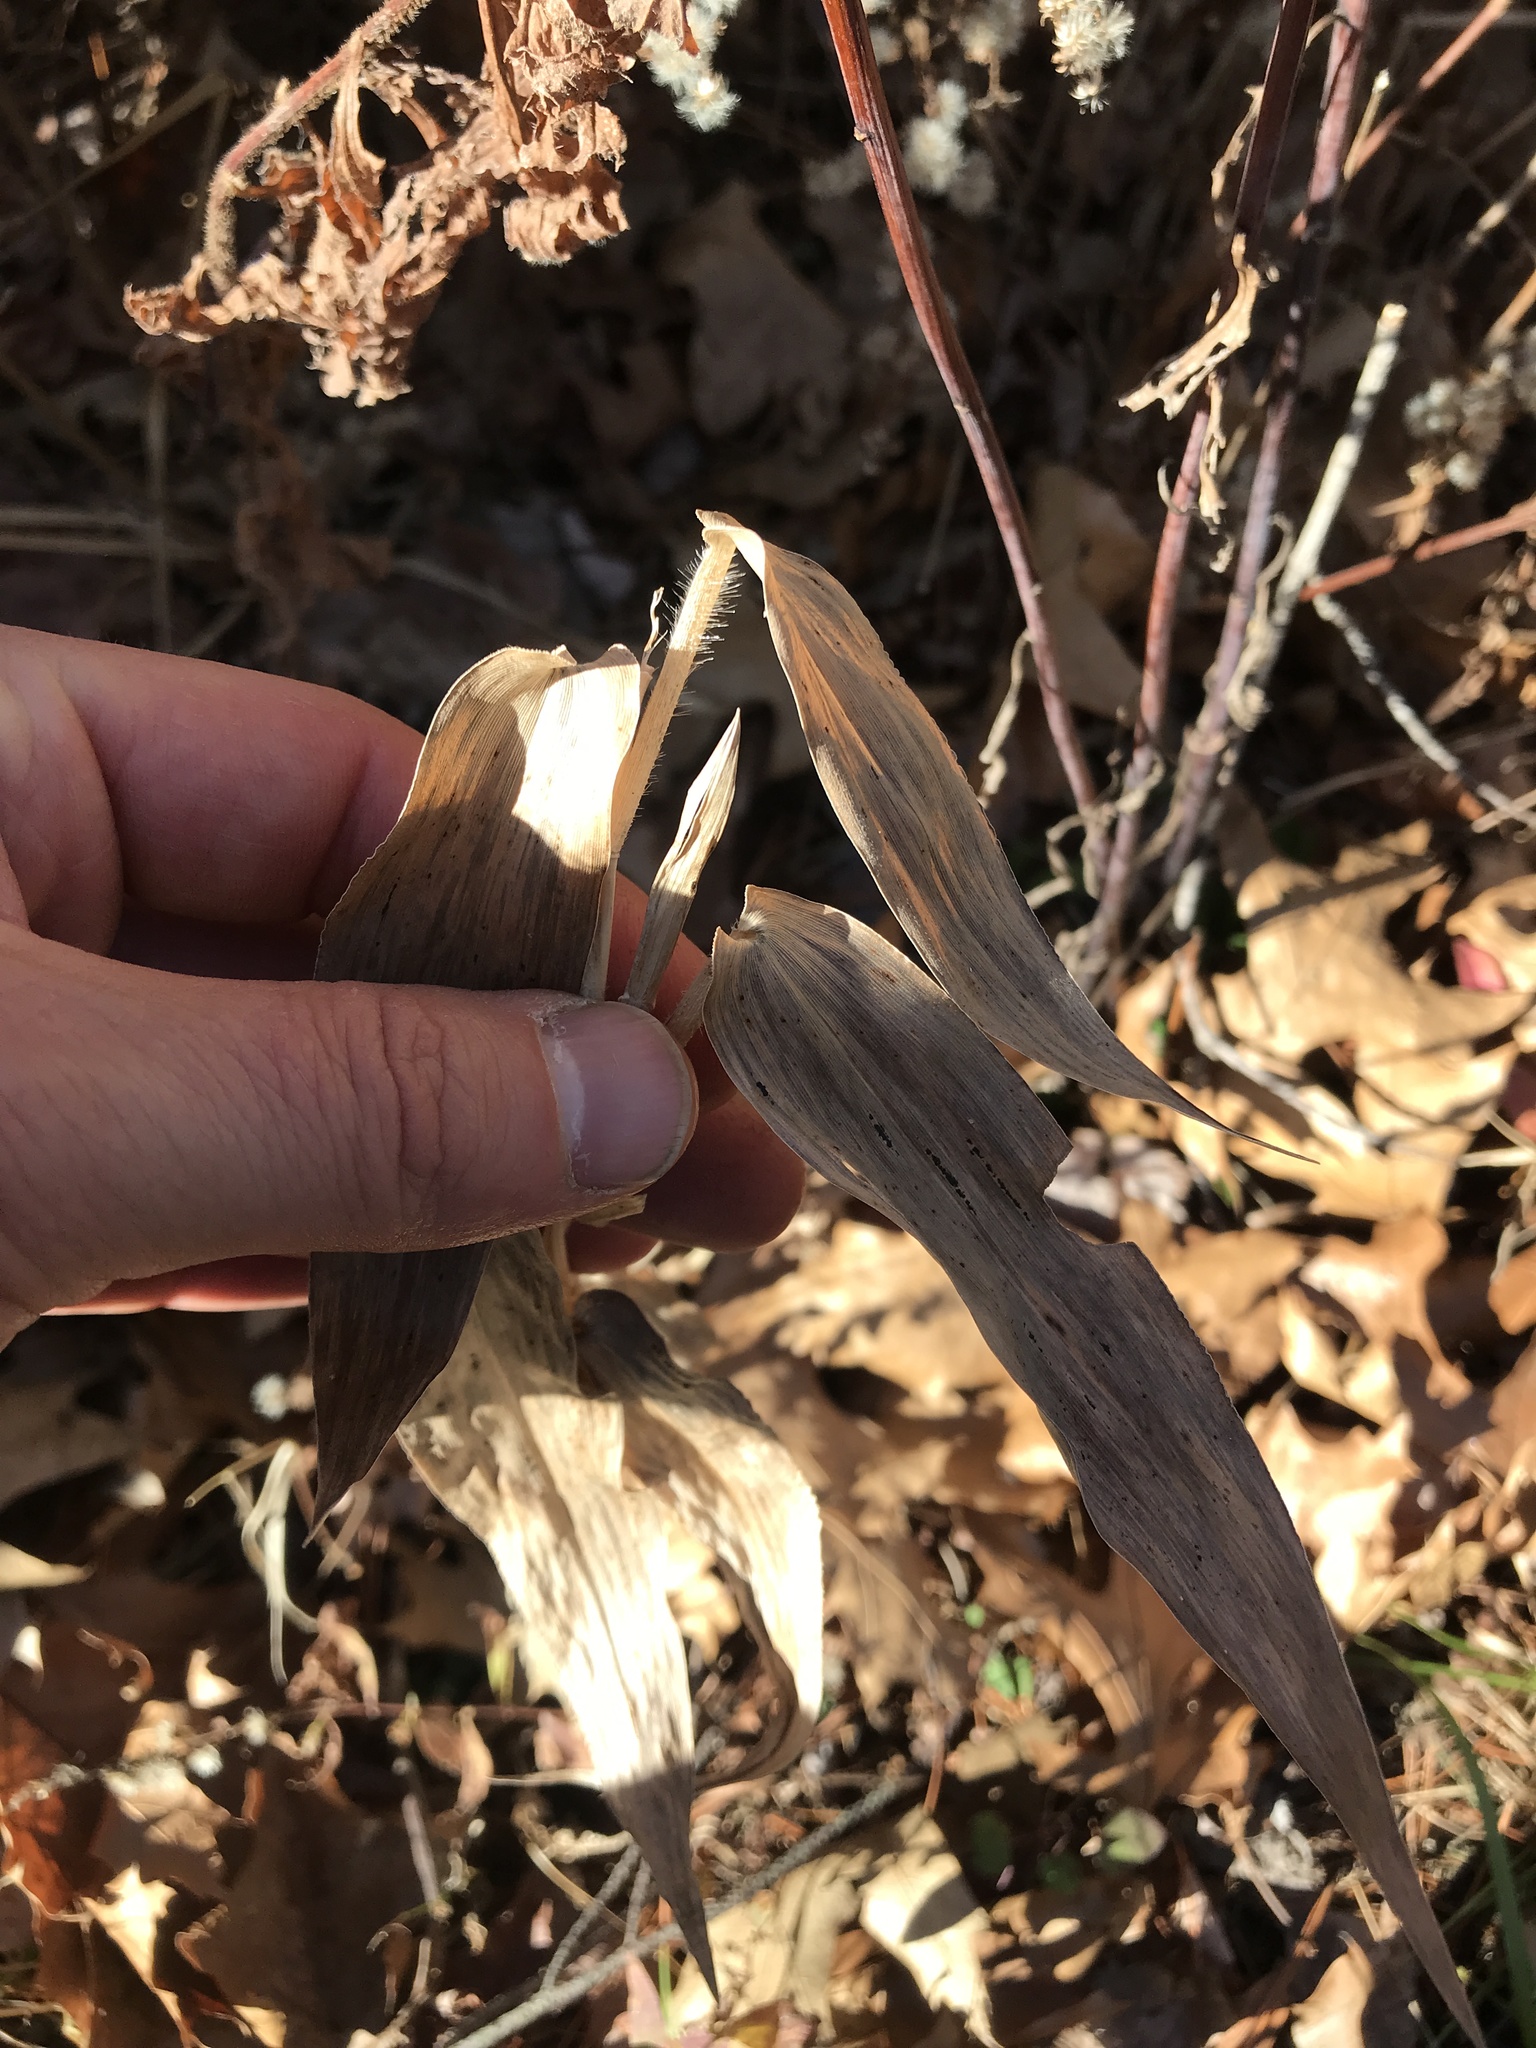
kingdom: Plantae
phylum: Tracheophyta
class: Liliopsida
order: Poales
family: Poaceae
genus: Dichanthelium
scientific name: Dichanthelium clandestinum
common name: Deer-tongue grass
